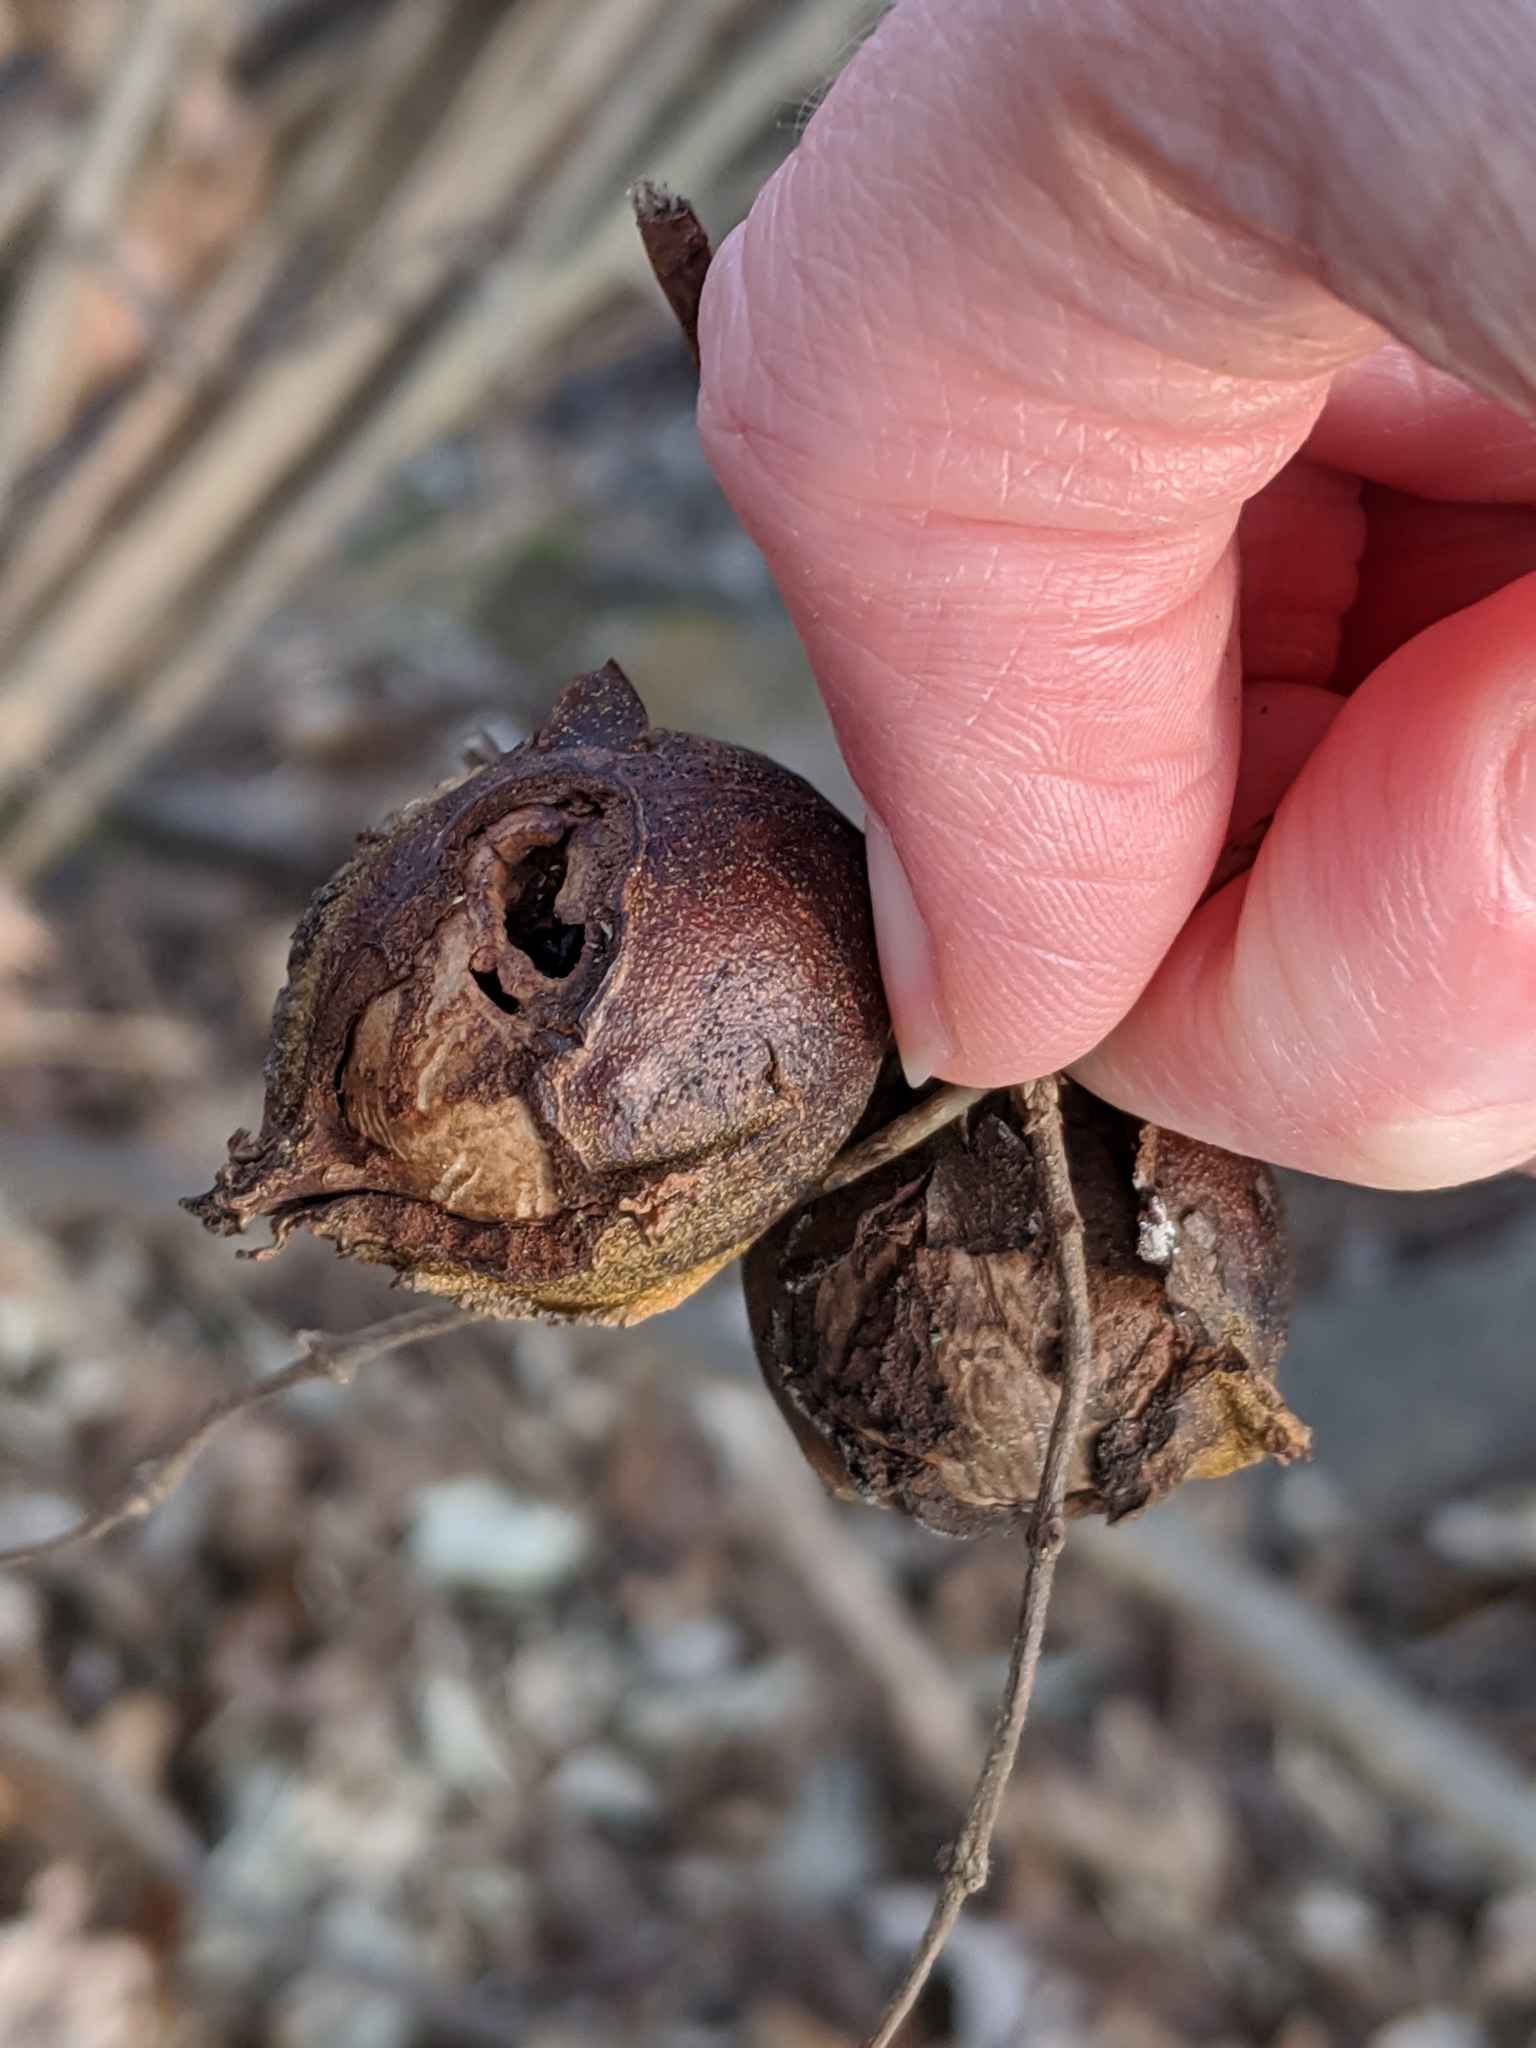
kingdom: Plantae
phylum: Tracheophyta
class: Magnoliopsida
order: Fagales
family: Juglandaceae
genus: Carya
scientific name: Carya cordiformis
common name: Bitternut hickory
